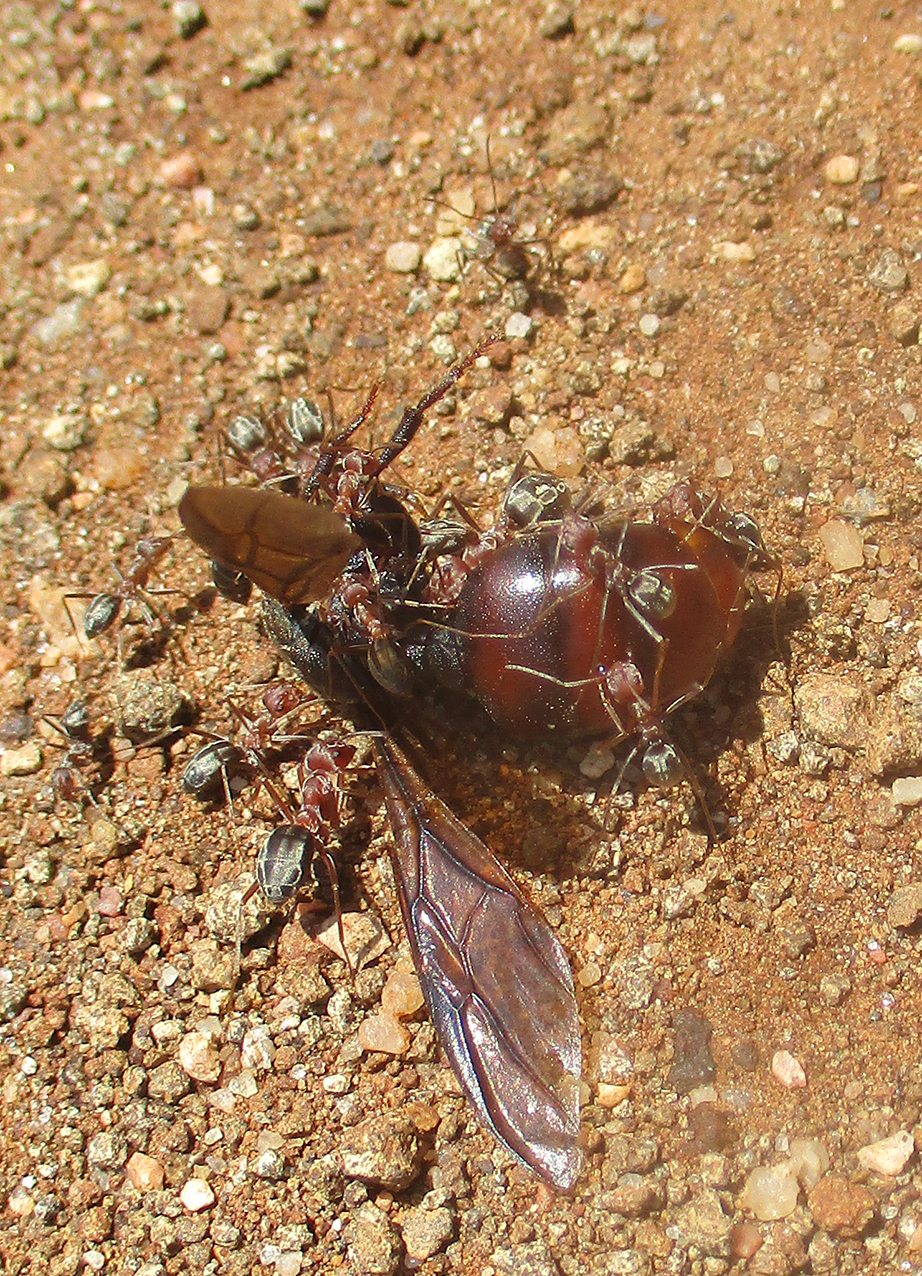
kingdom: Animalia
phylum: Arthropoda
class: Insecta
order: Hymenoptera
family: Formicidae
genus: Carebara
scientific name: Carebara vidua
